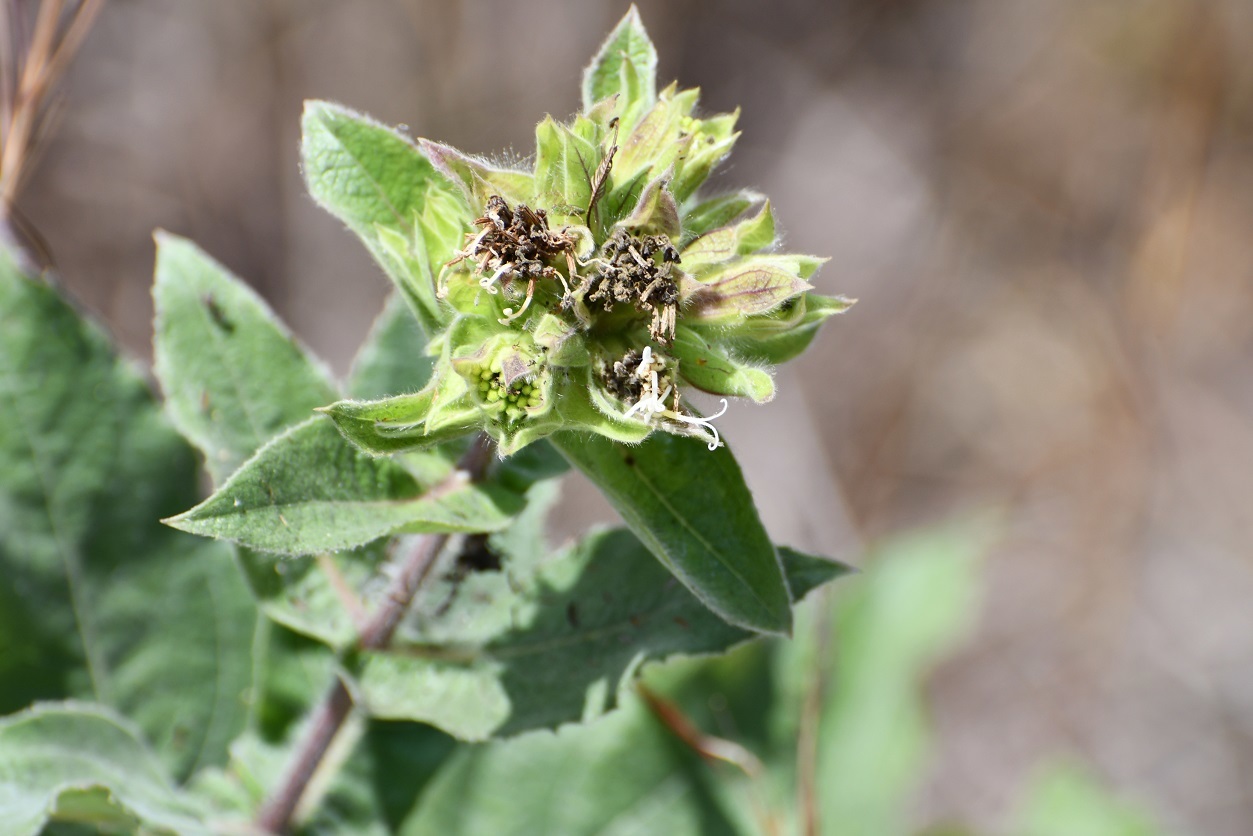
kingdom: Plantae
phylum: Tracheophyta
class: Magnoliopsida
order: Asterales
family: Asteraceae
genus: Lagascea
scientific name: Lagascea helianthifolia
